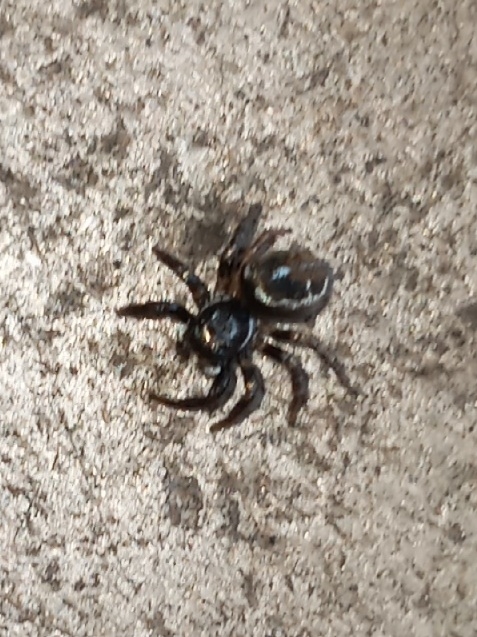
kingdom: Animalia
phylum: Arthropoda
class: Arachnida
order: Araneae
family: Salticidae
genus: Anasaitis
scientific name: Anasaitis canosa
